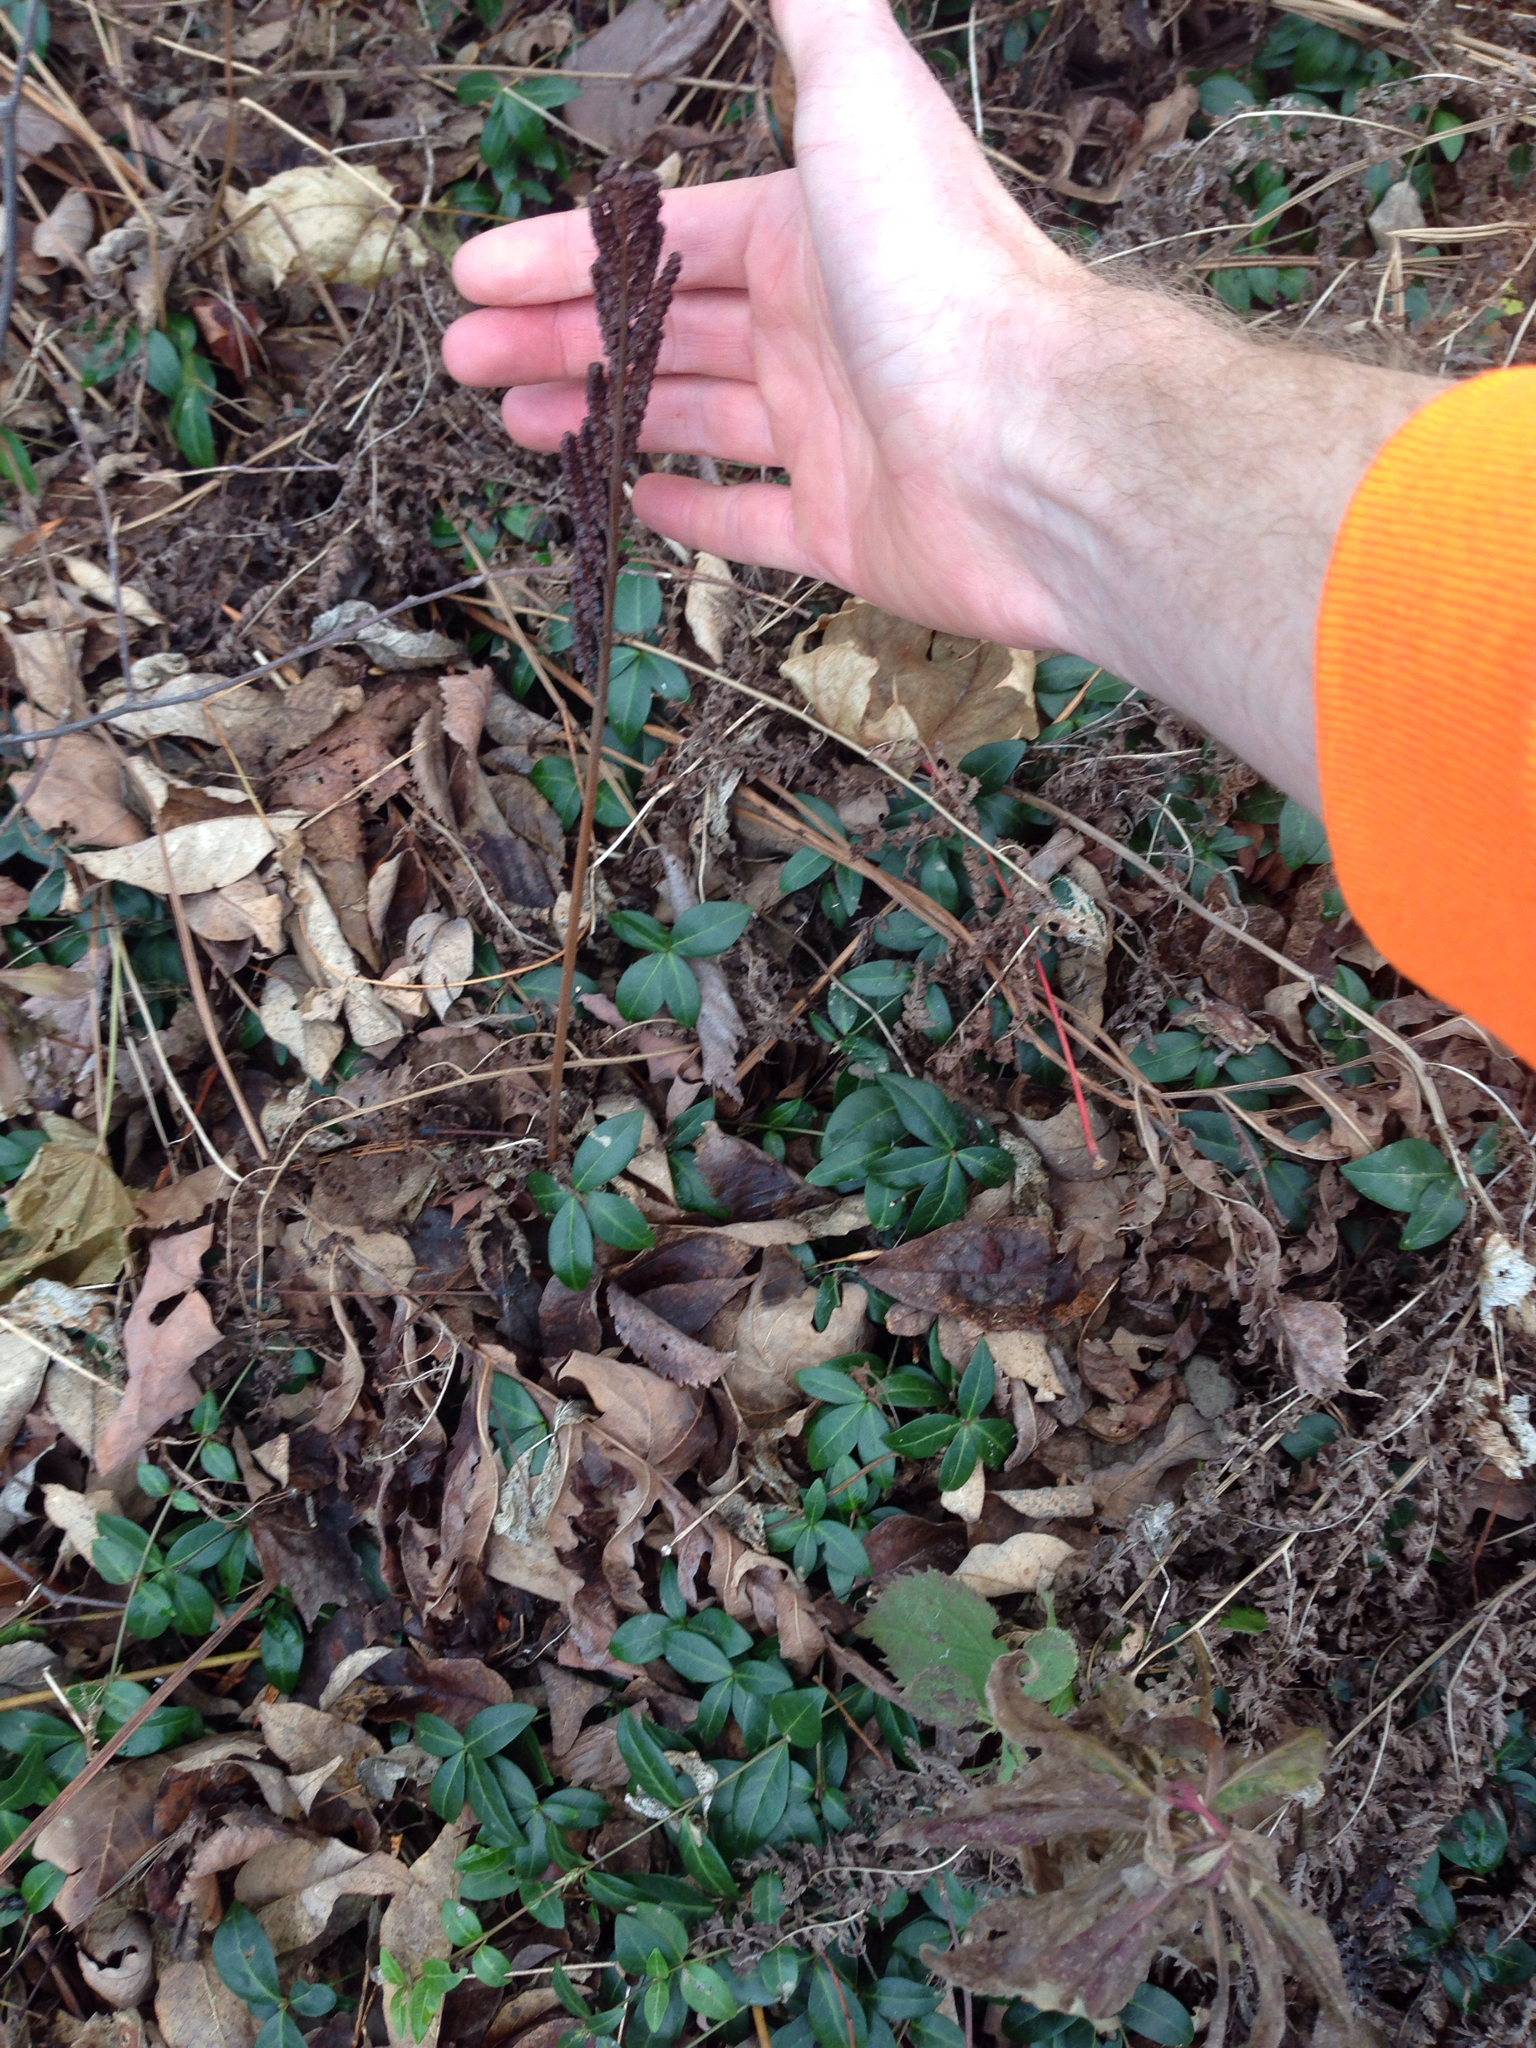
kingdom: Plantae
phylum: Tracheophyta
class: Polypodiopsida
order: Polypodiales
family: Onocleaceae
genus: Onoclea
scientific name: Onoclea sensibilis
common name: Sensitive fern
